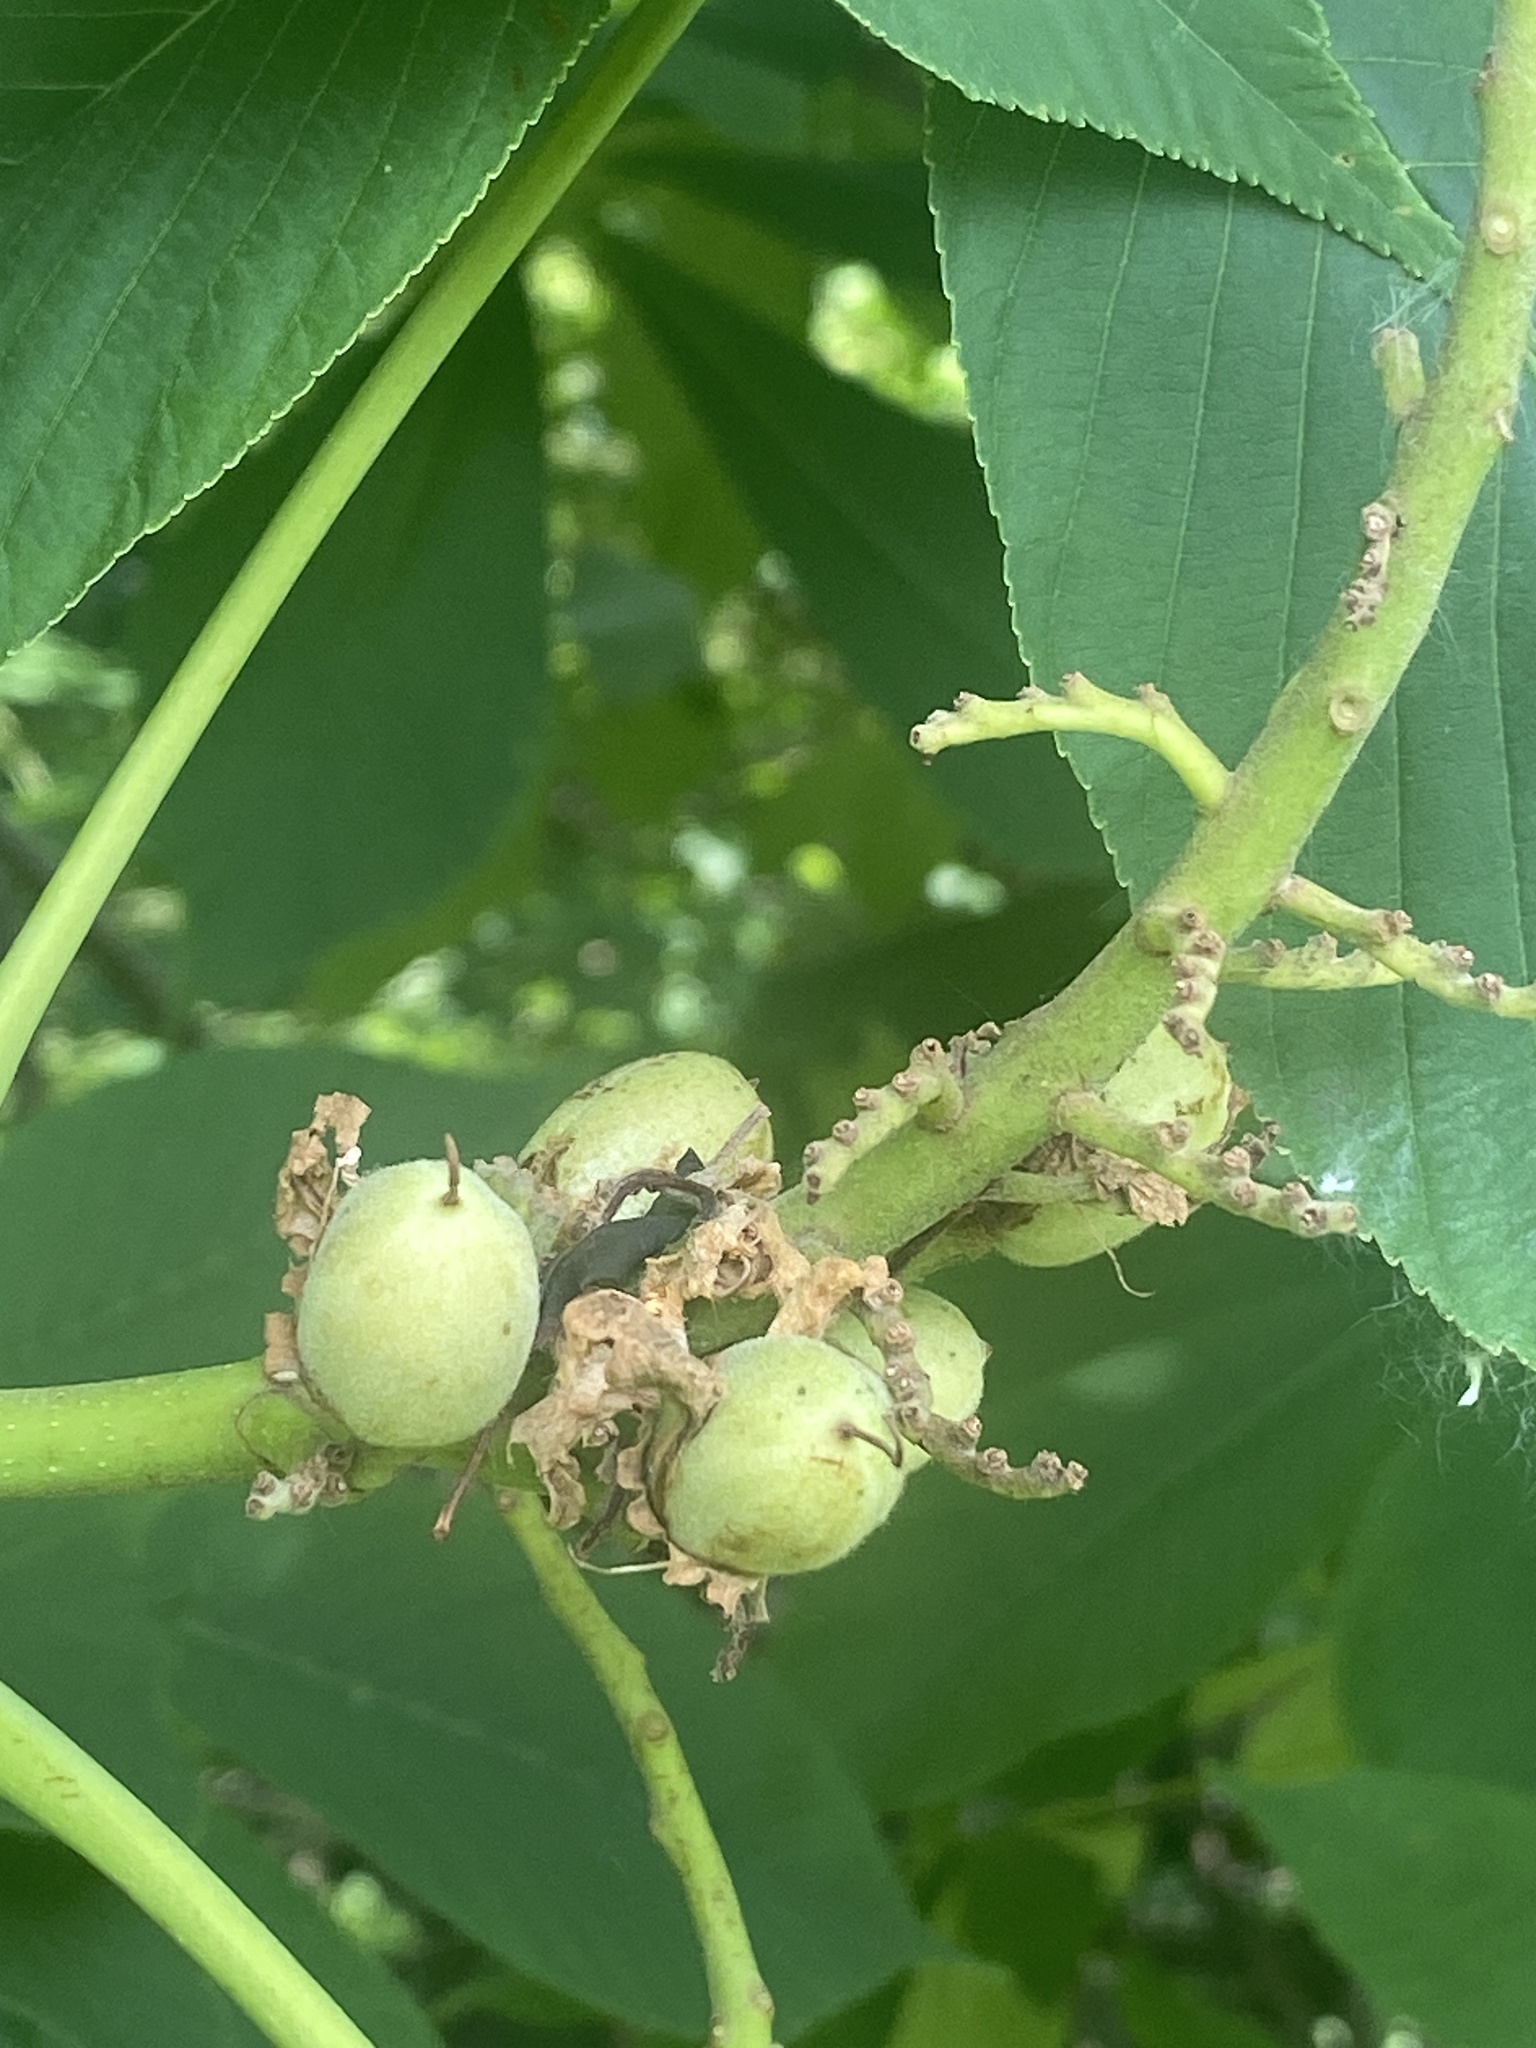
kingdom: Plantae
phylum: Tracheophyta
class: Magnoliopsida
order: Sapindales
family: Sapindaceae
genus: Aesculus
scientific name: Aesculus flava
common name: Yellow buckeye
